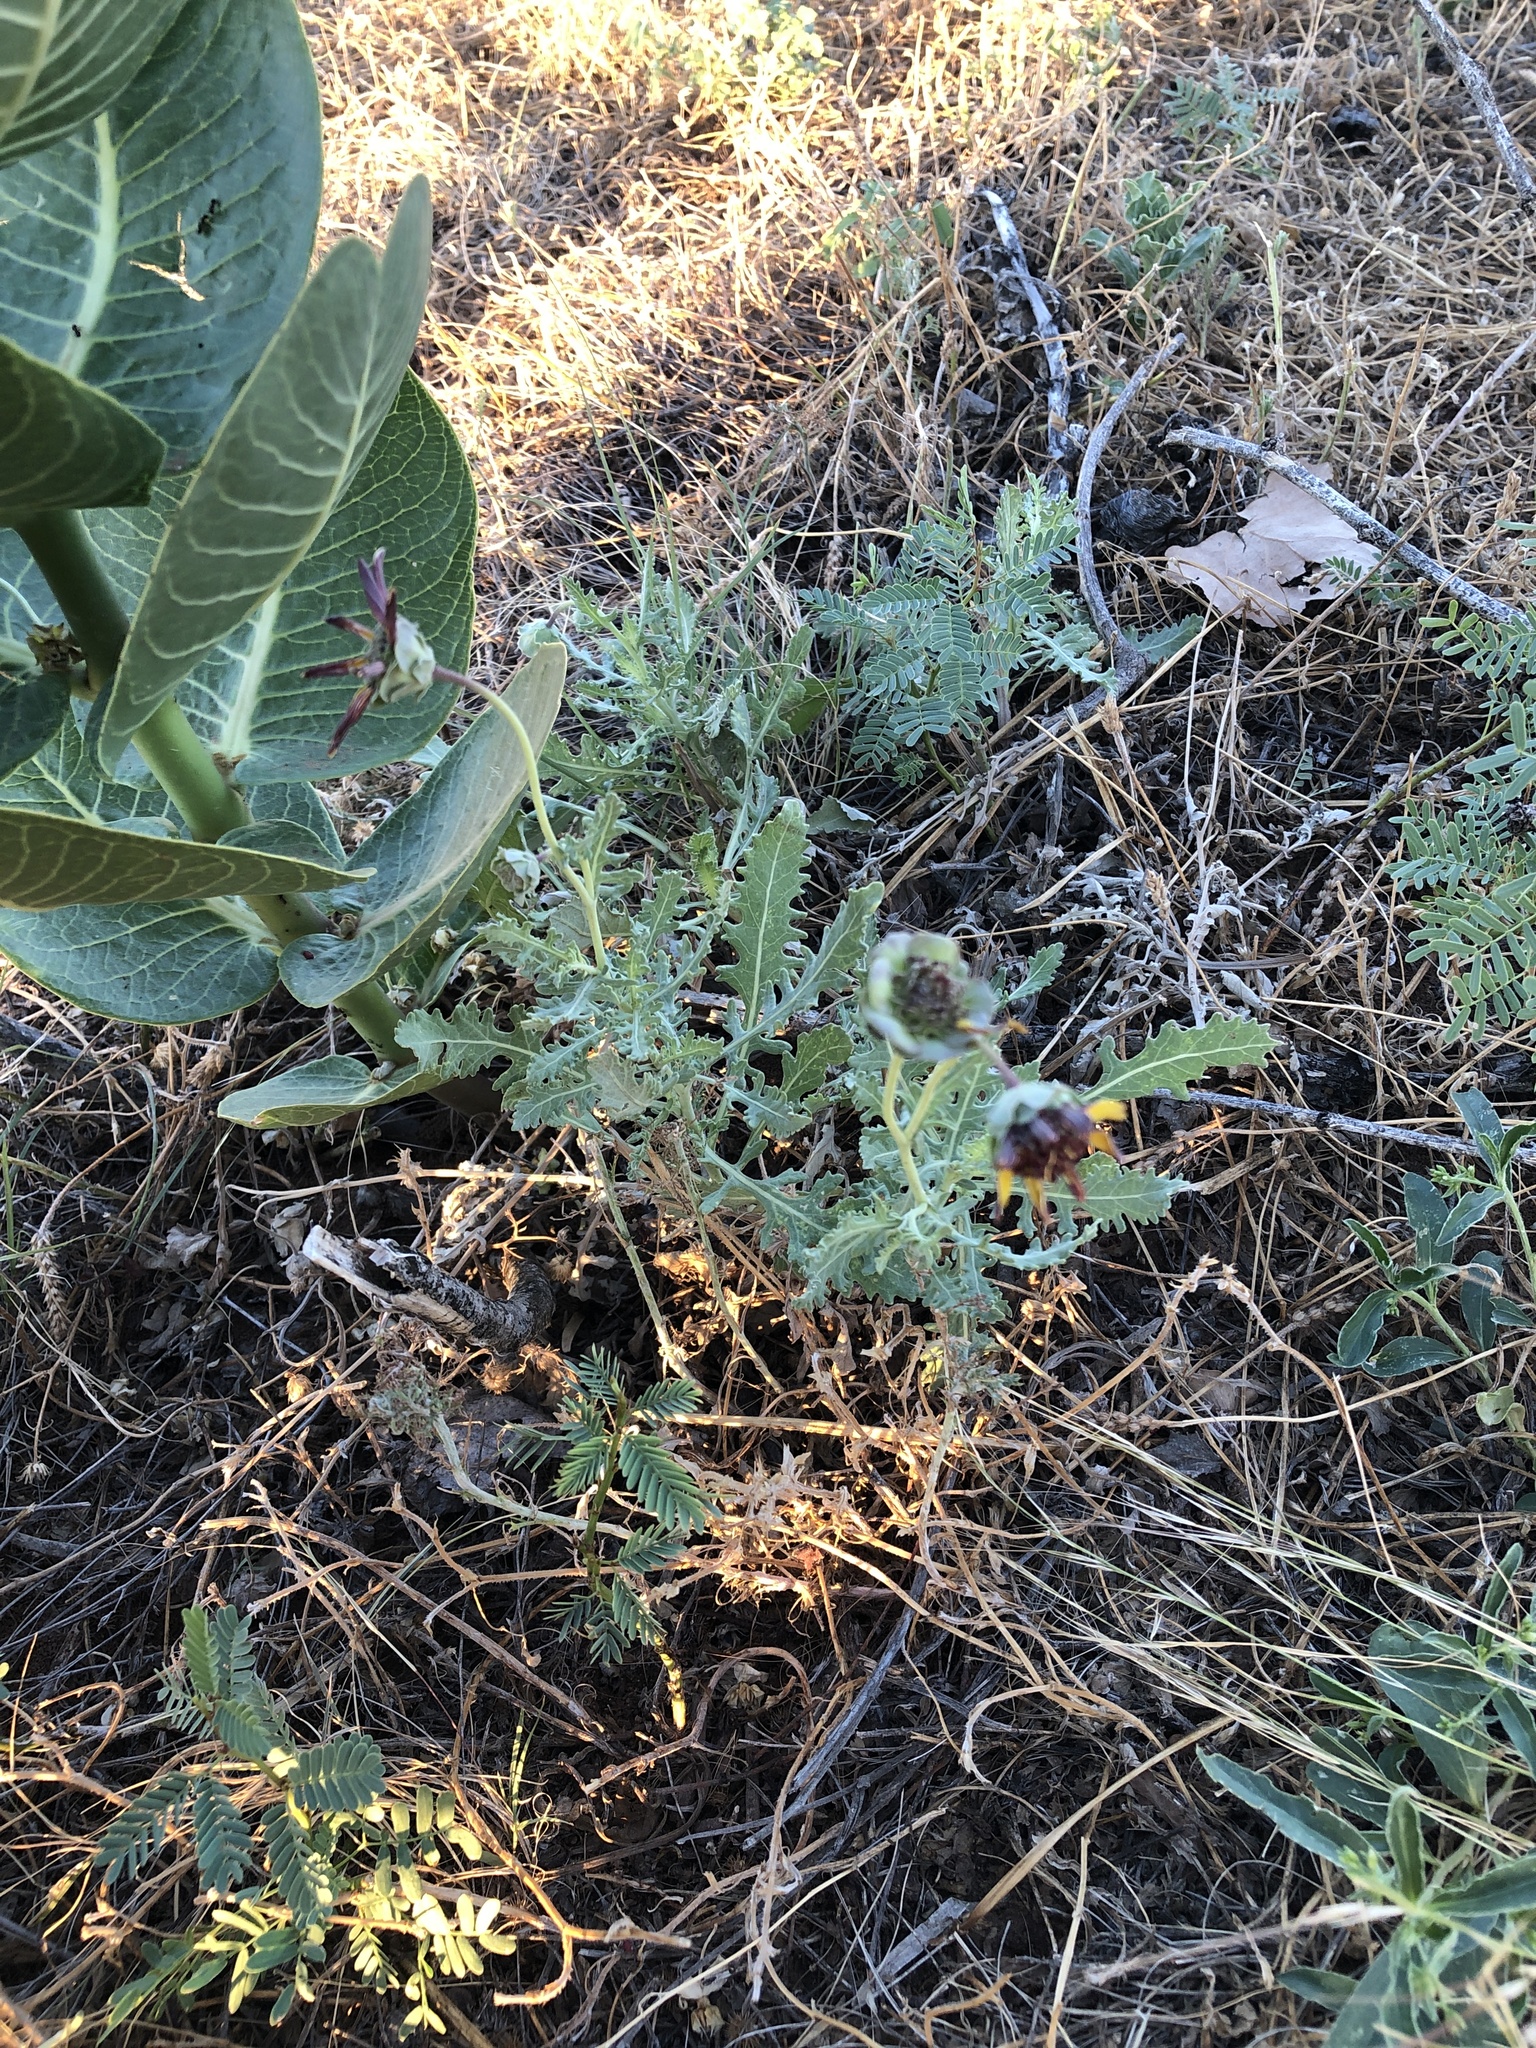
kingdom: Plantae
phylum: Tracheophyta
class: Magnoliopsida
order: Asterales
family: Asteraceae
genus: Berlandiera
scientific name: Berlandiera lyrata
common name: Chocolate-flower
